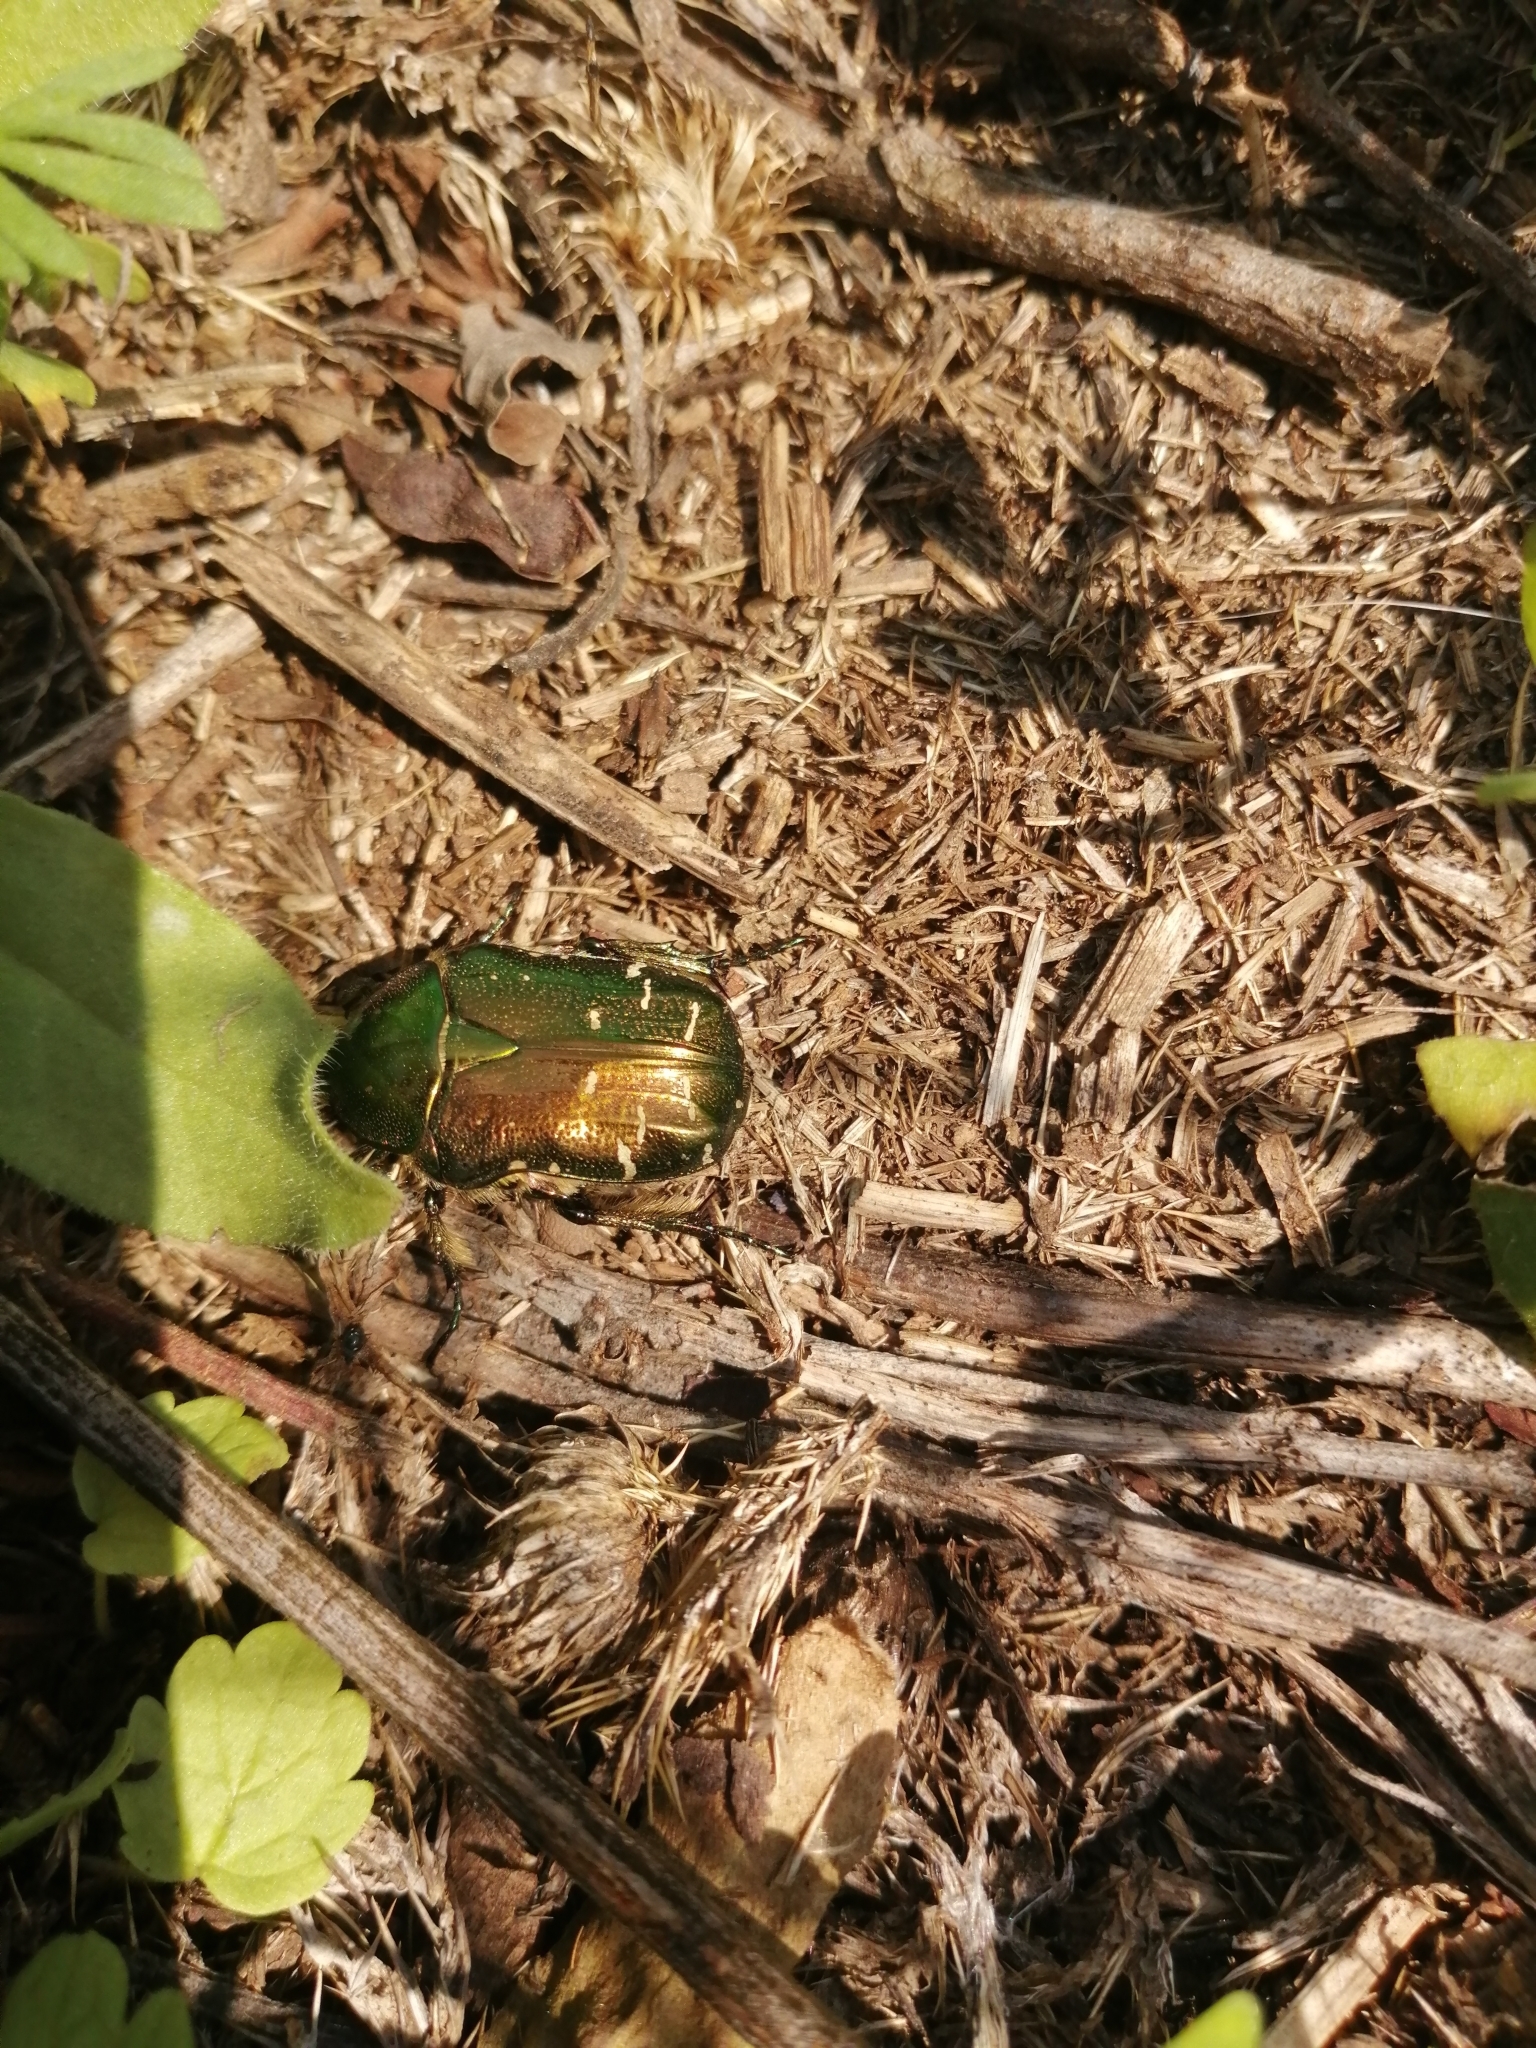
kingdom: Animalia
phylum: Arthropoda
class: Insecta
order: Coleoptera
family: Scarabaeidae
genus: Cetonia
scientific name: Cetonia aurata
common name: Rose chafer
